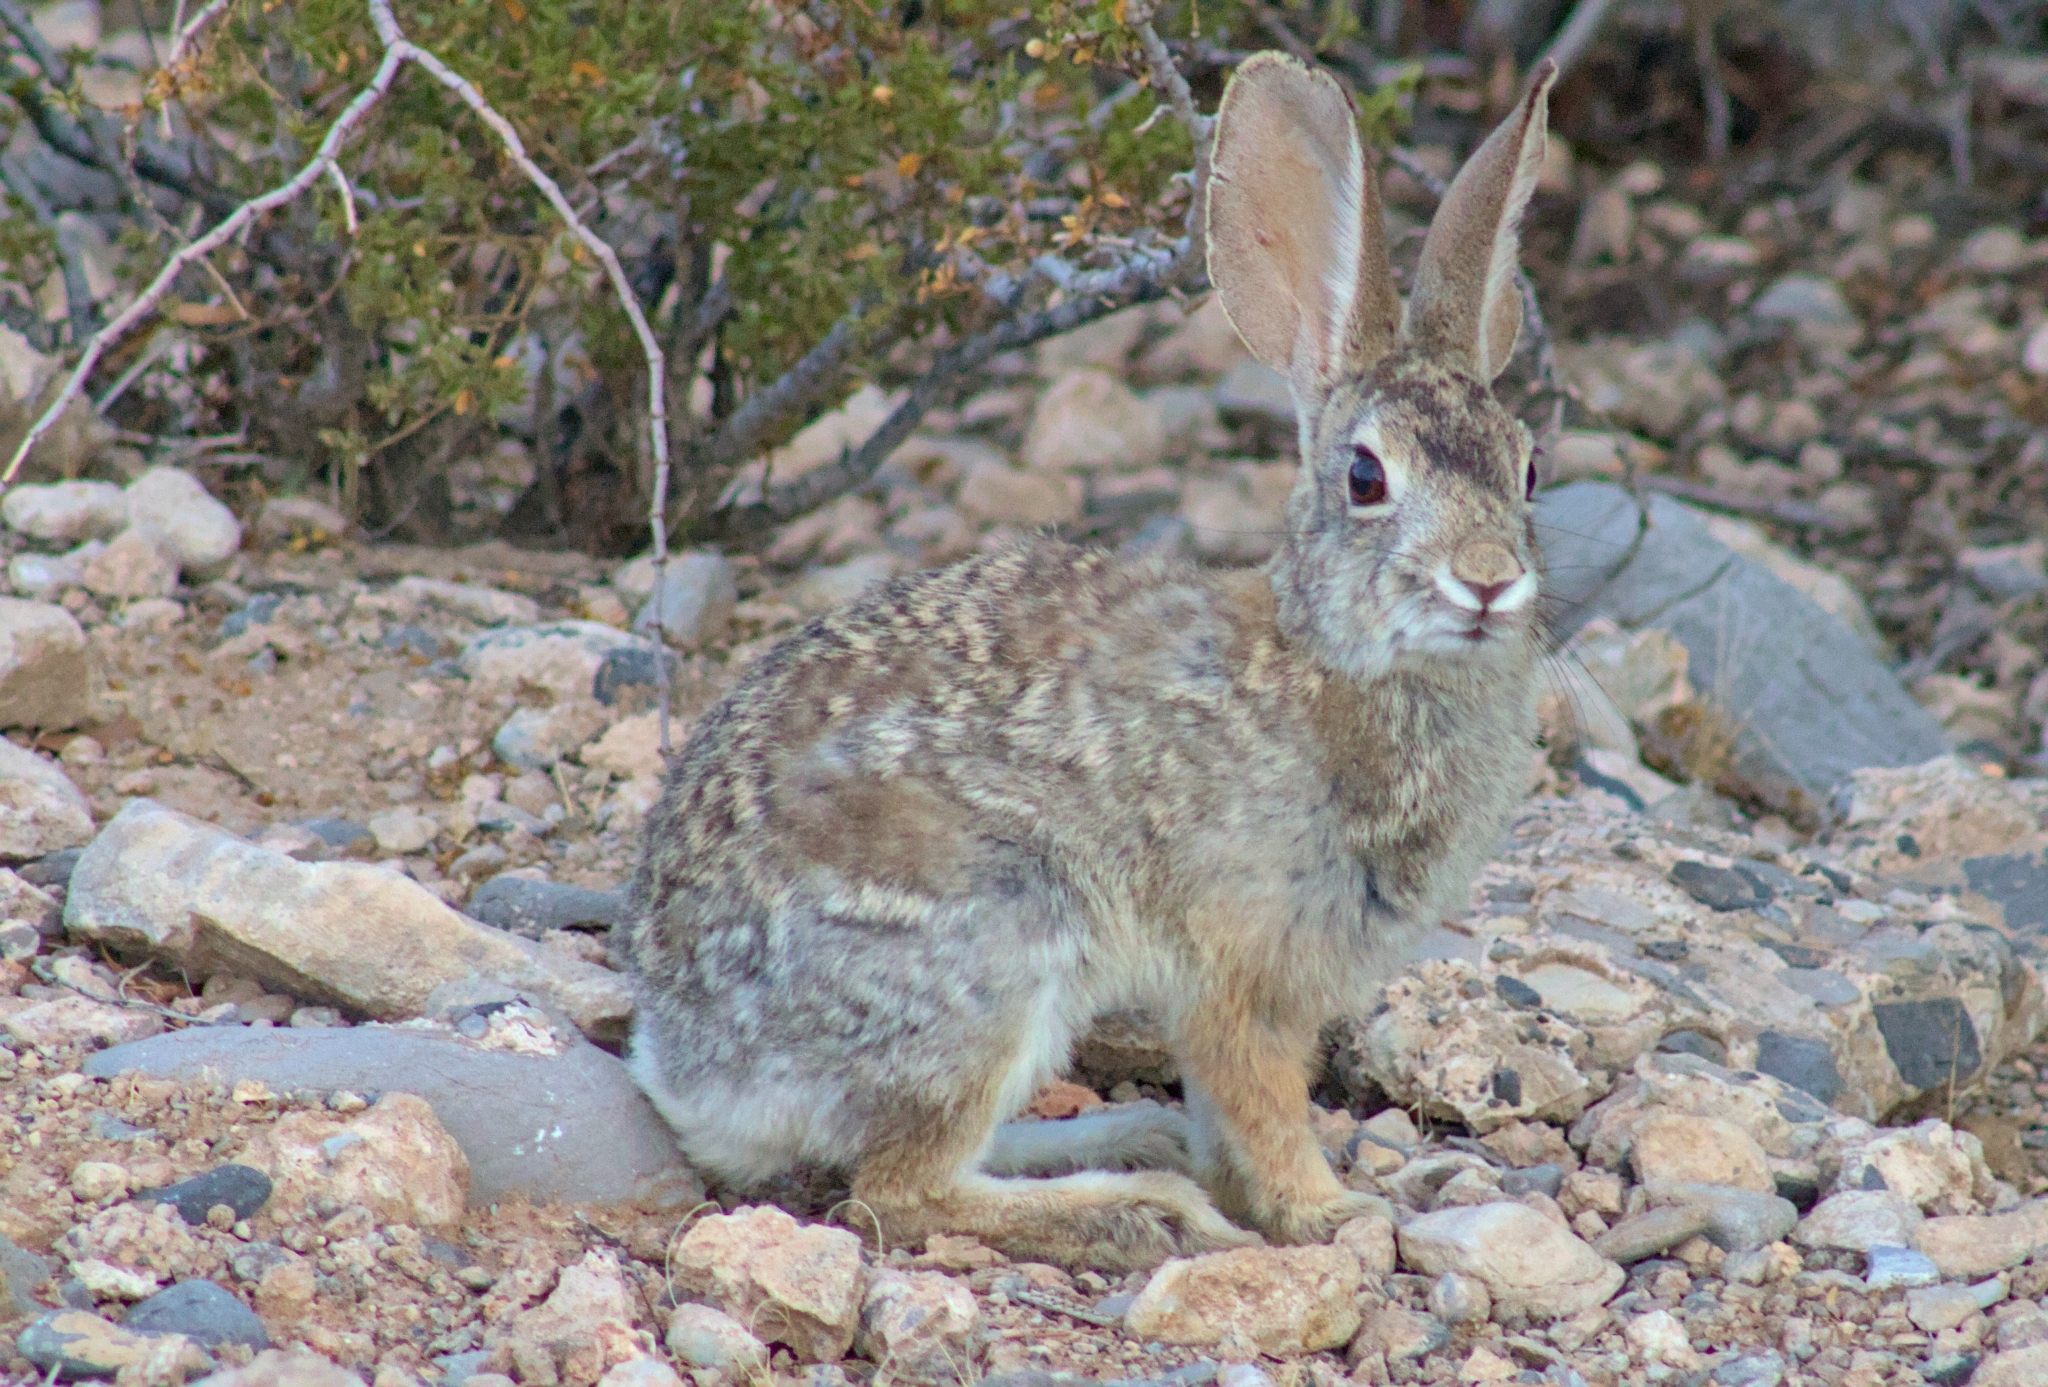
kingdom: Animalia
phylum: Chordata
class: Mammalia
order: Lagomorpha
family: Leporidae
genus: Sylvilagus
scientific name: Sylvilagus audubonii
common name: Desert cottontail
